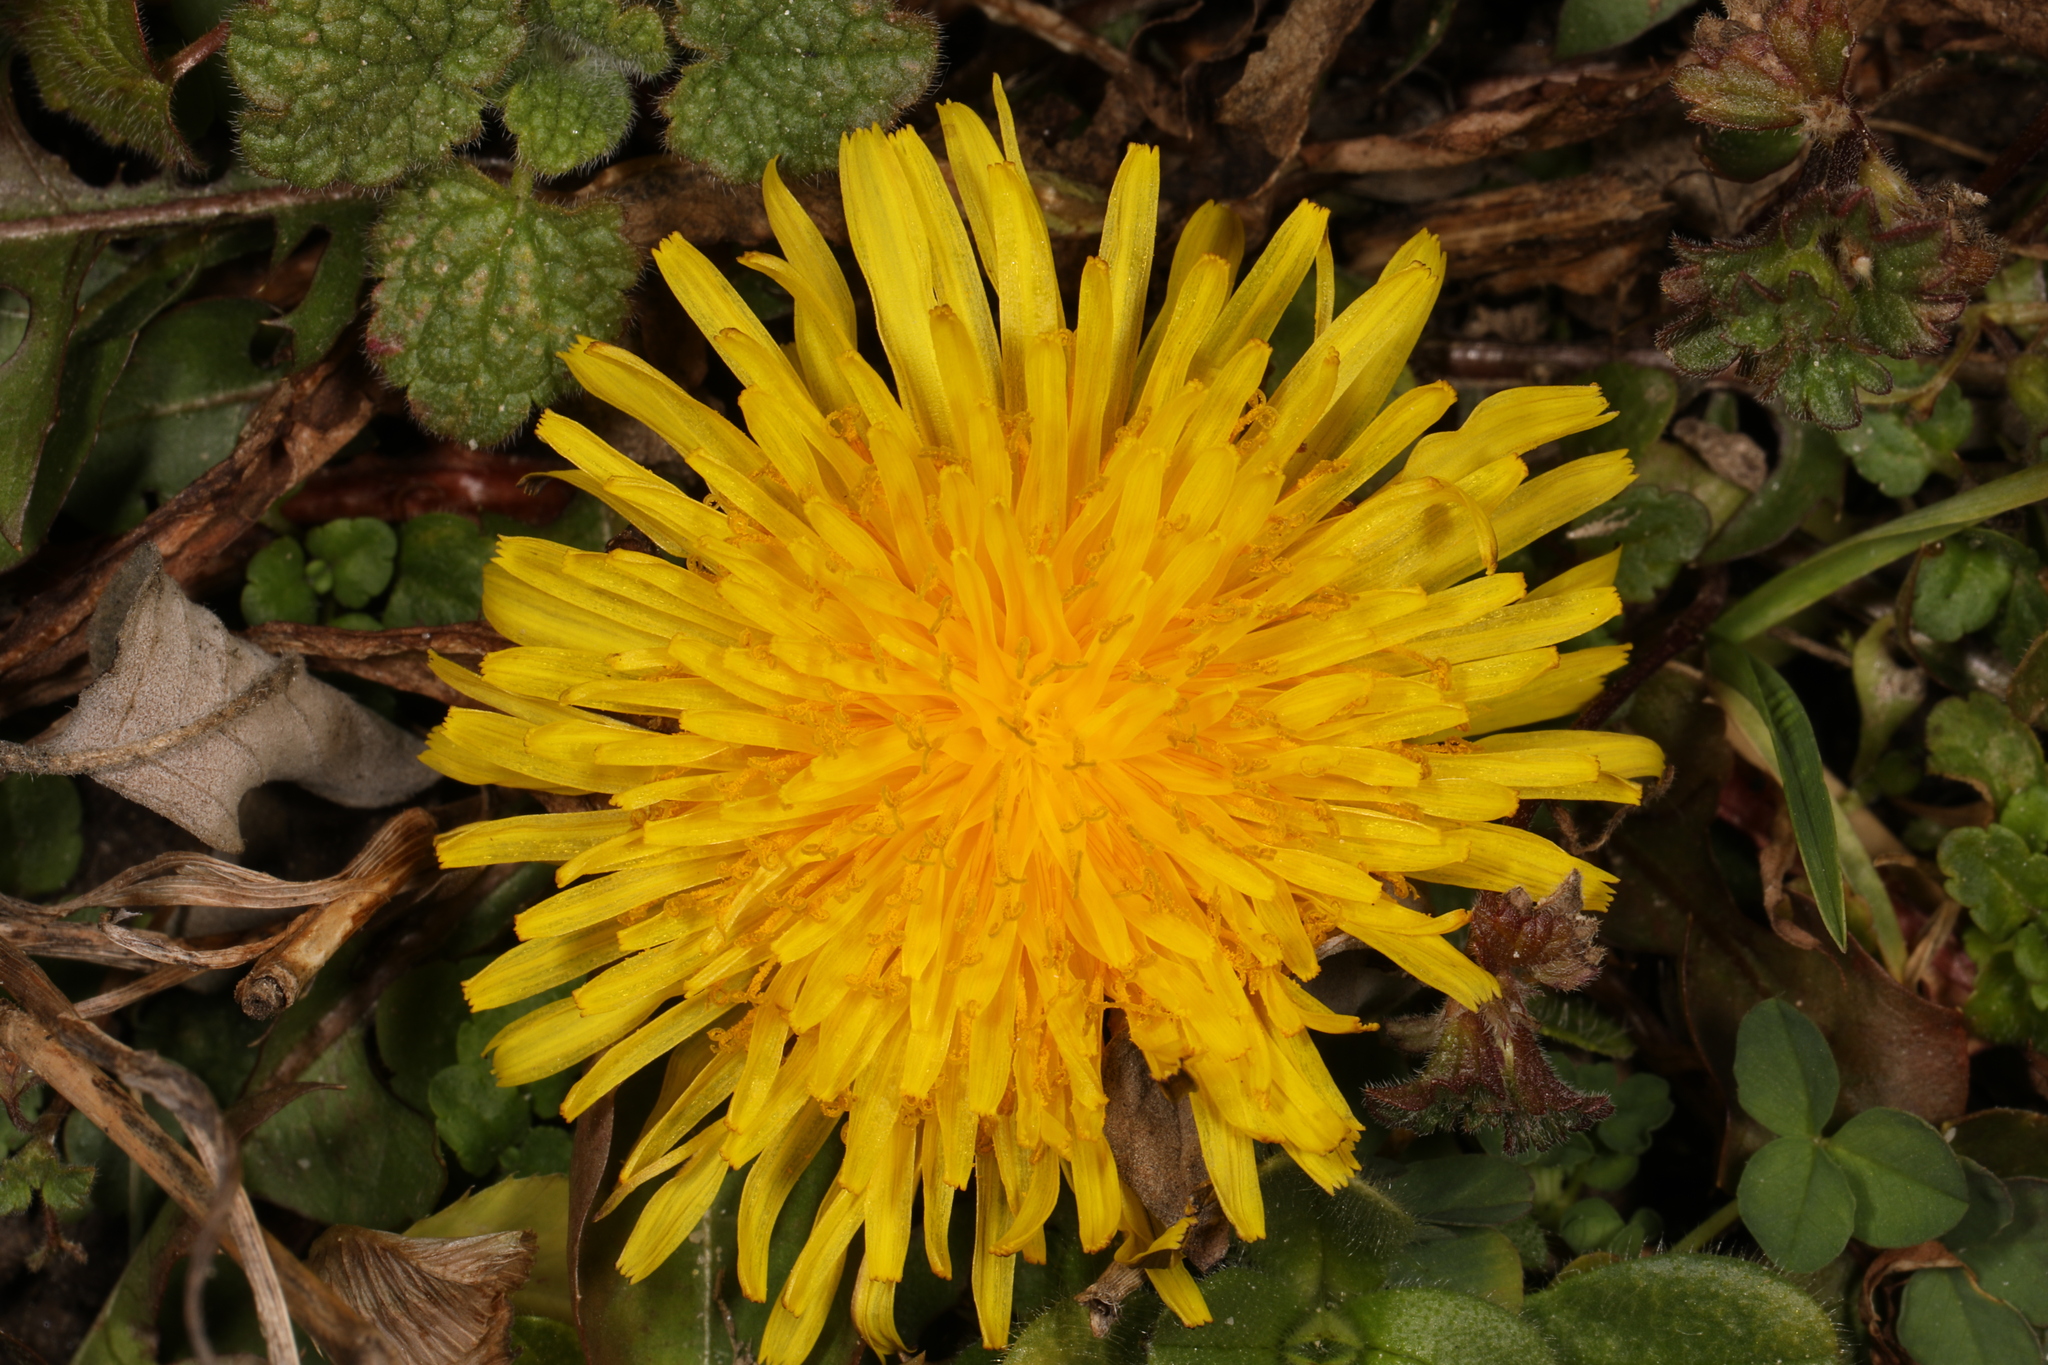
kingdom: Plantae
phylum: Tracheophyta
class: Magnoliopsida
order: Asterales
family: Asteraceae
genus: Taraxacum
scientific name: Taraxacum officinale
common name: Common dandelion
